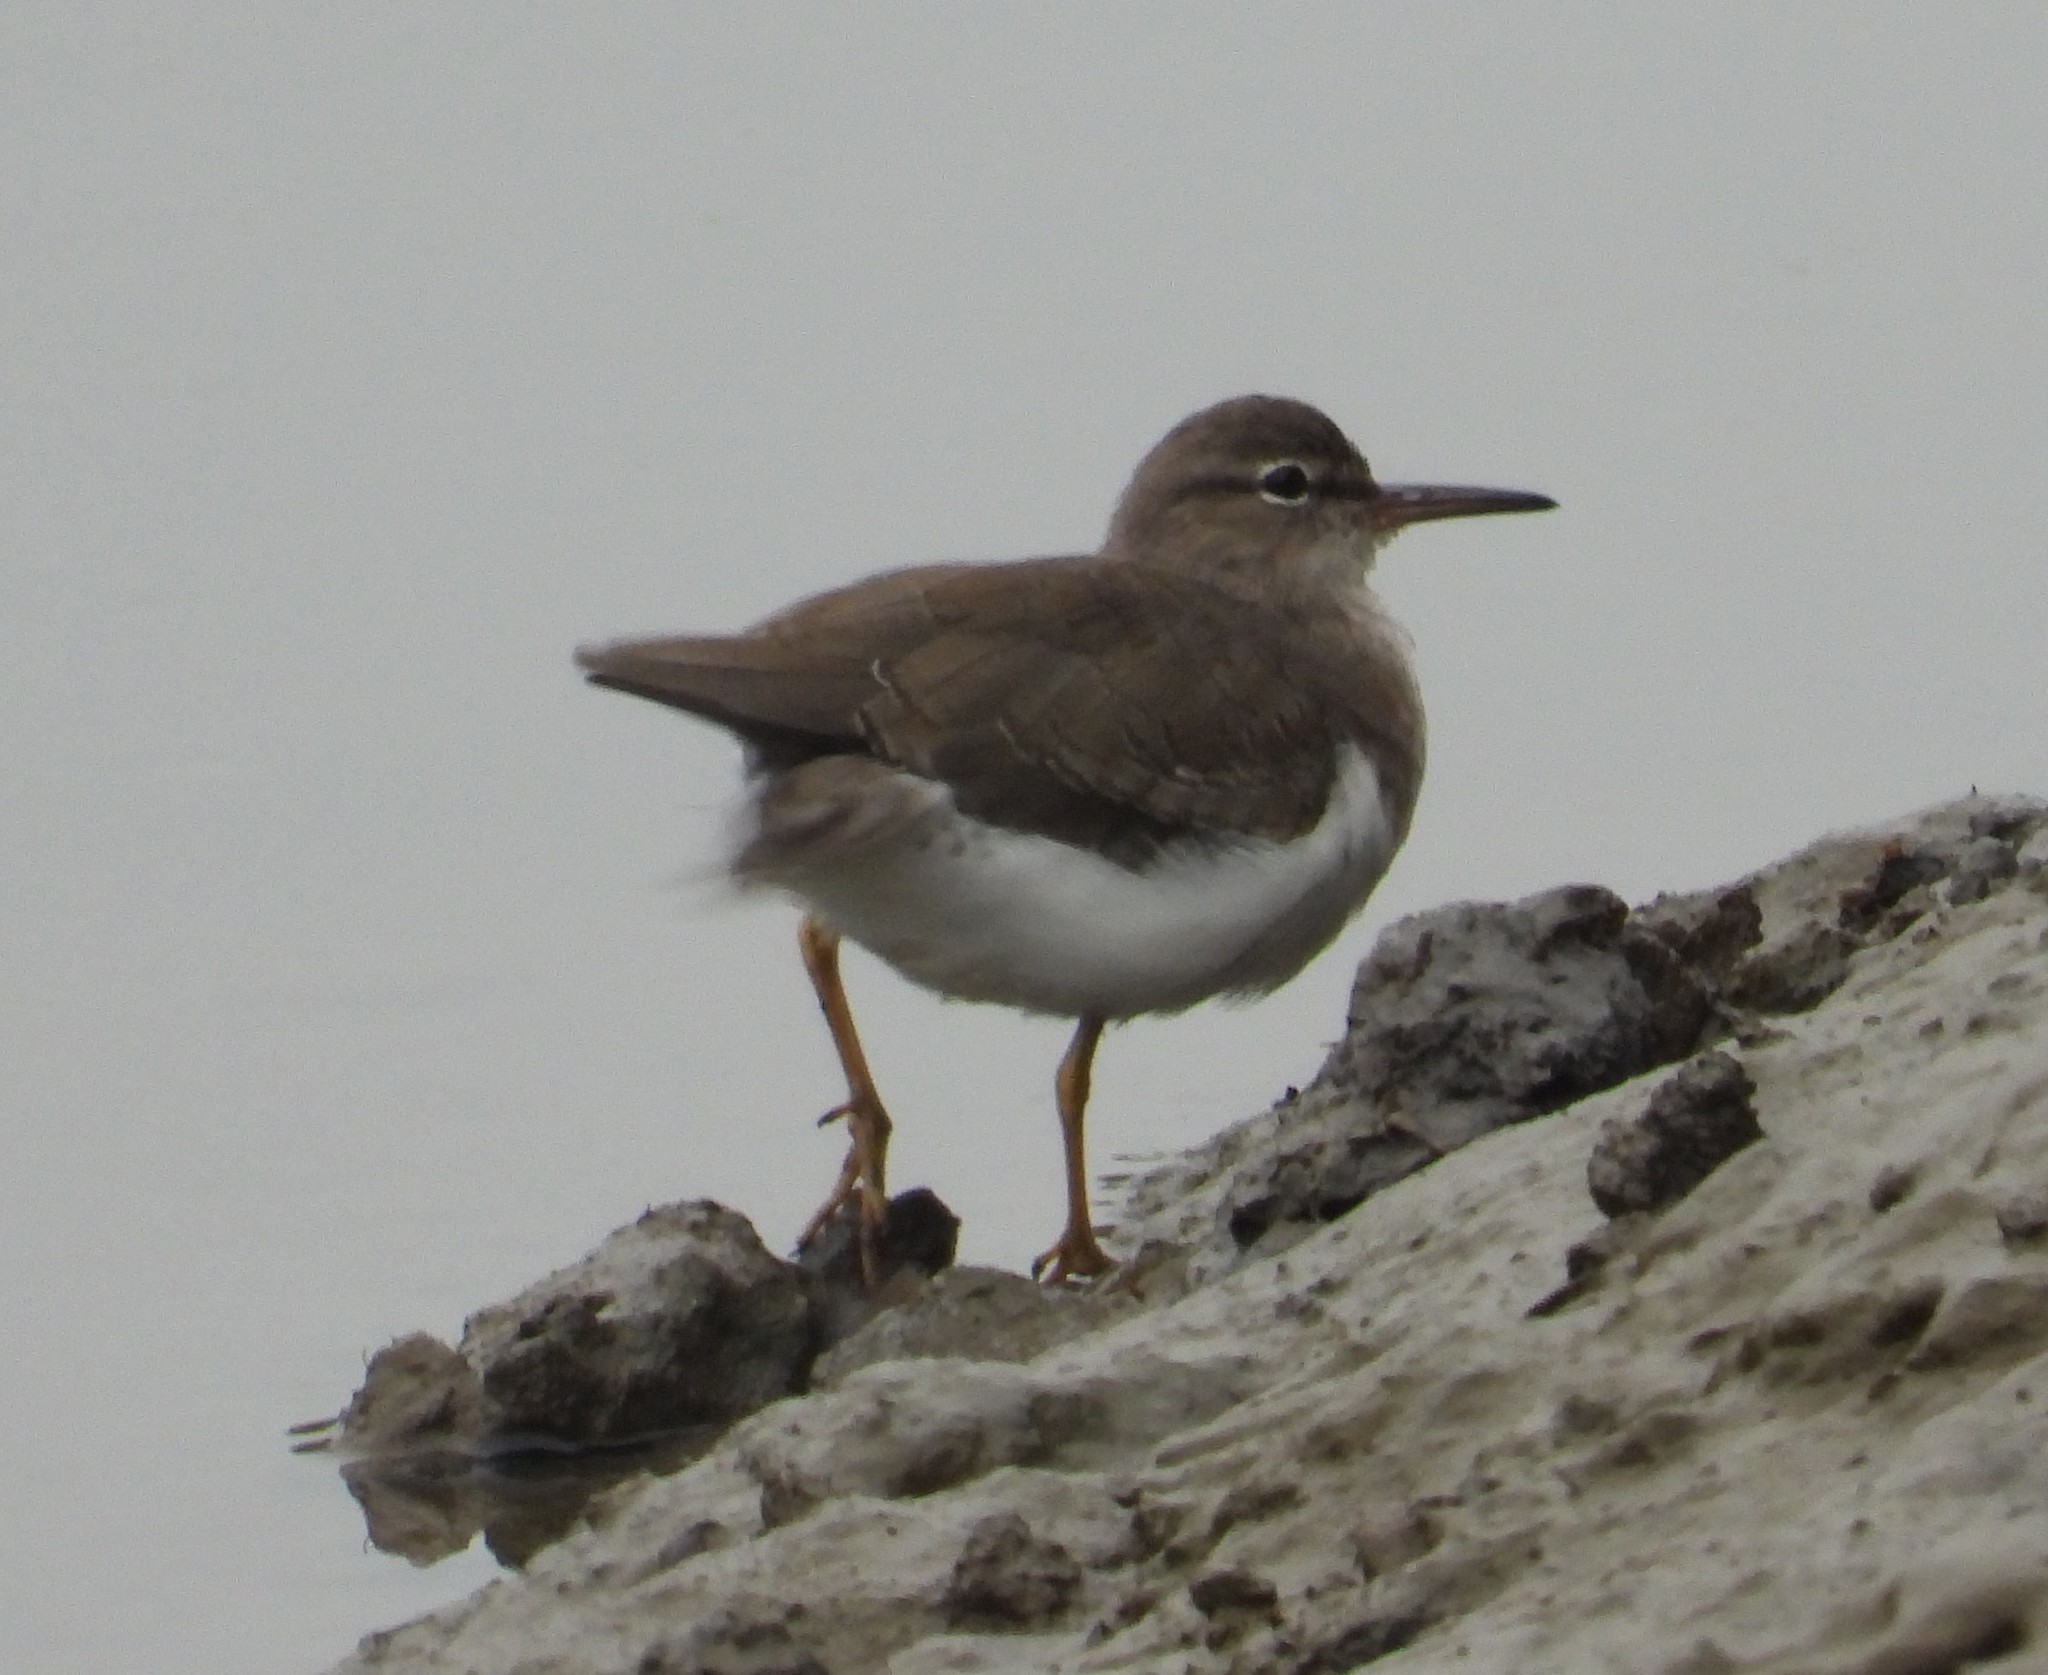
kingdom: Animalia
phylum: Chordata
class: Aves
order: Charadriiformes
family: Scolopacidae
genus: Actitis
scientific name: Actitis macularius
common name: Spotted sandpiper
